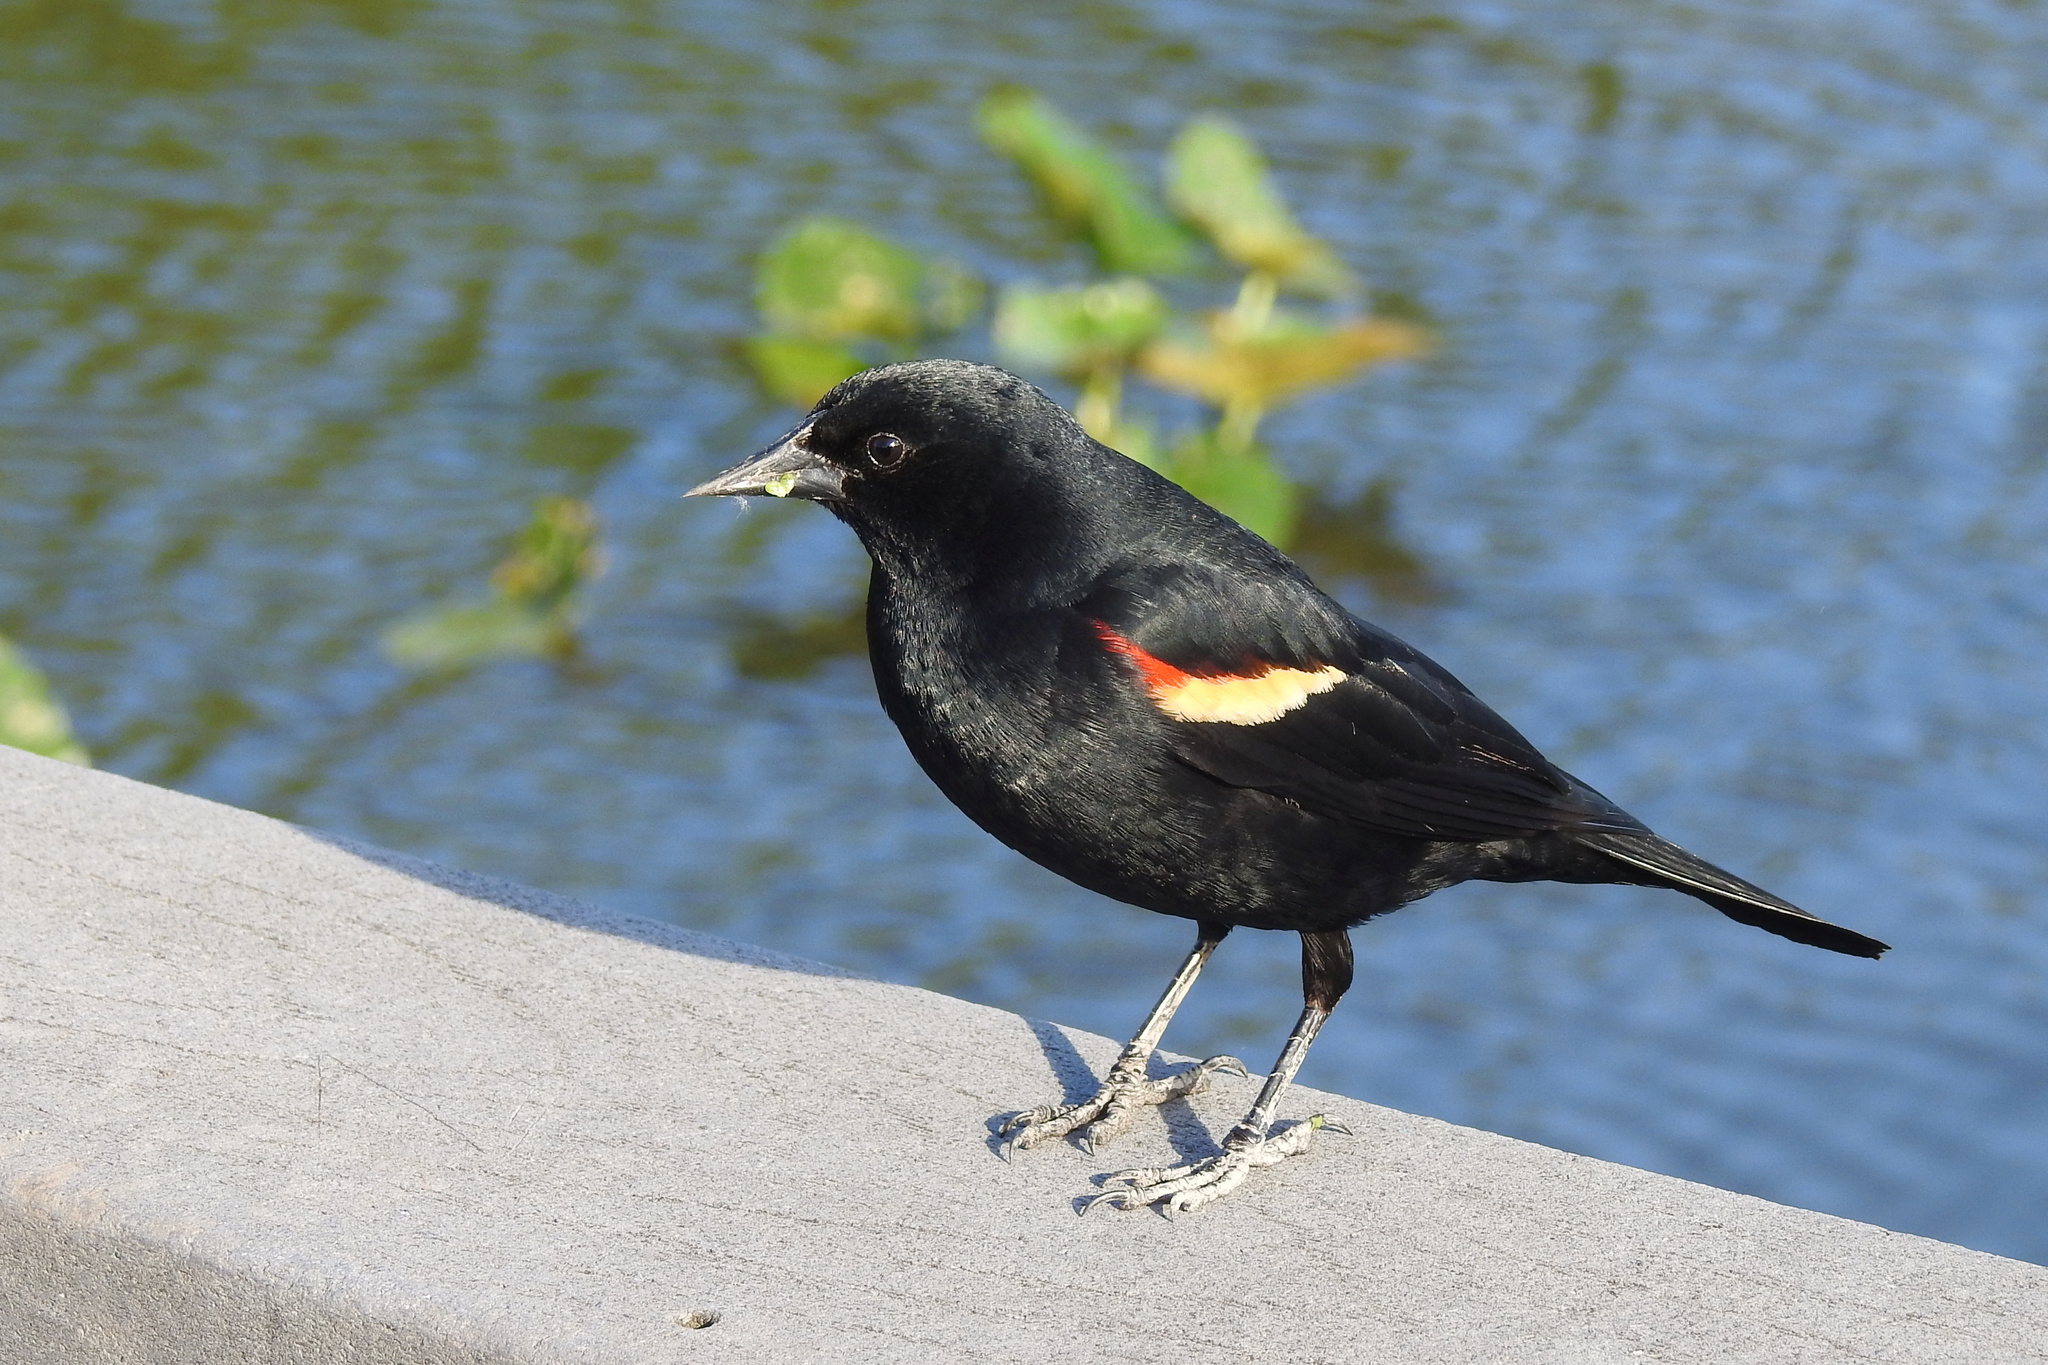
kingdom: Animalia
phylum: Chordata
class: Aves
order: Passeriformes
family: Icteridae
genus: Agelaius
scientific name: Agelaius phoeniceus
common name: Red-winged blackbird
